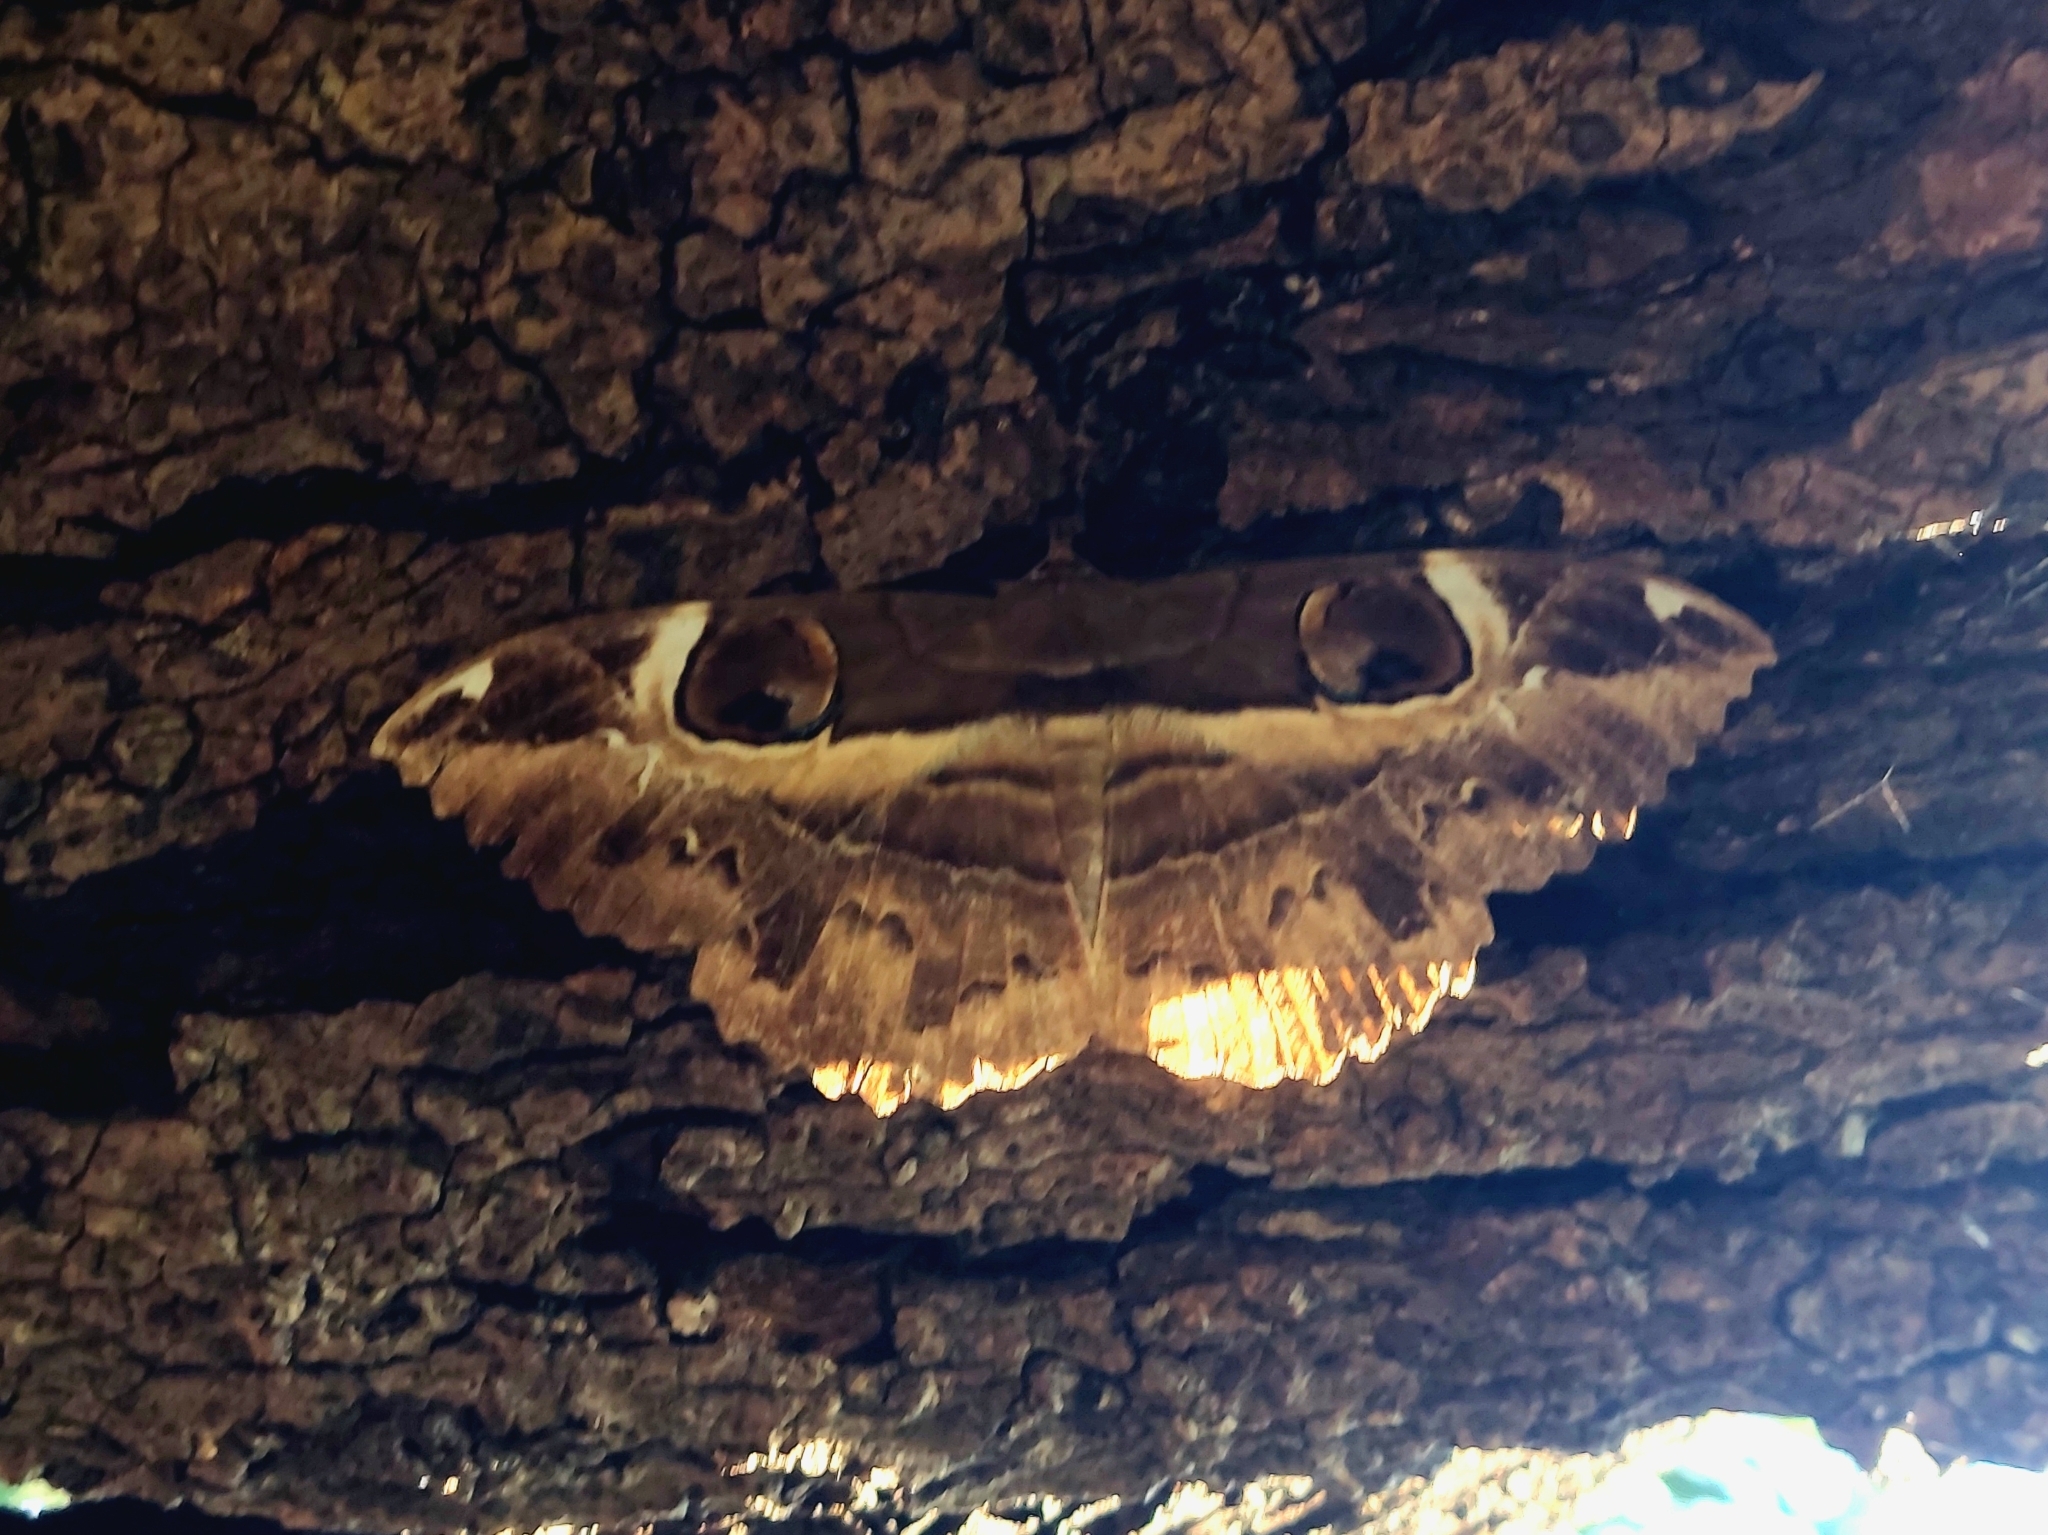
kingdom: Animalia
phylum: Arthropoda
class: Insecta
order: Lepidoptera
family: Erebidae
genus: Erebus
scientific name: Erebus ephesperis
